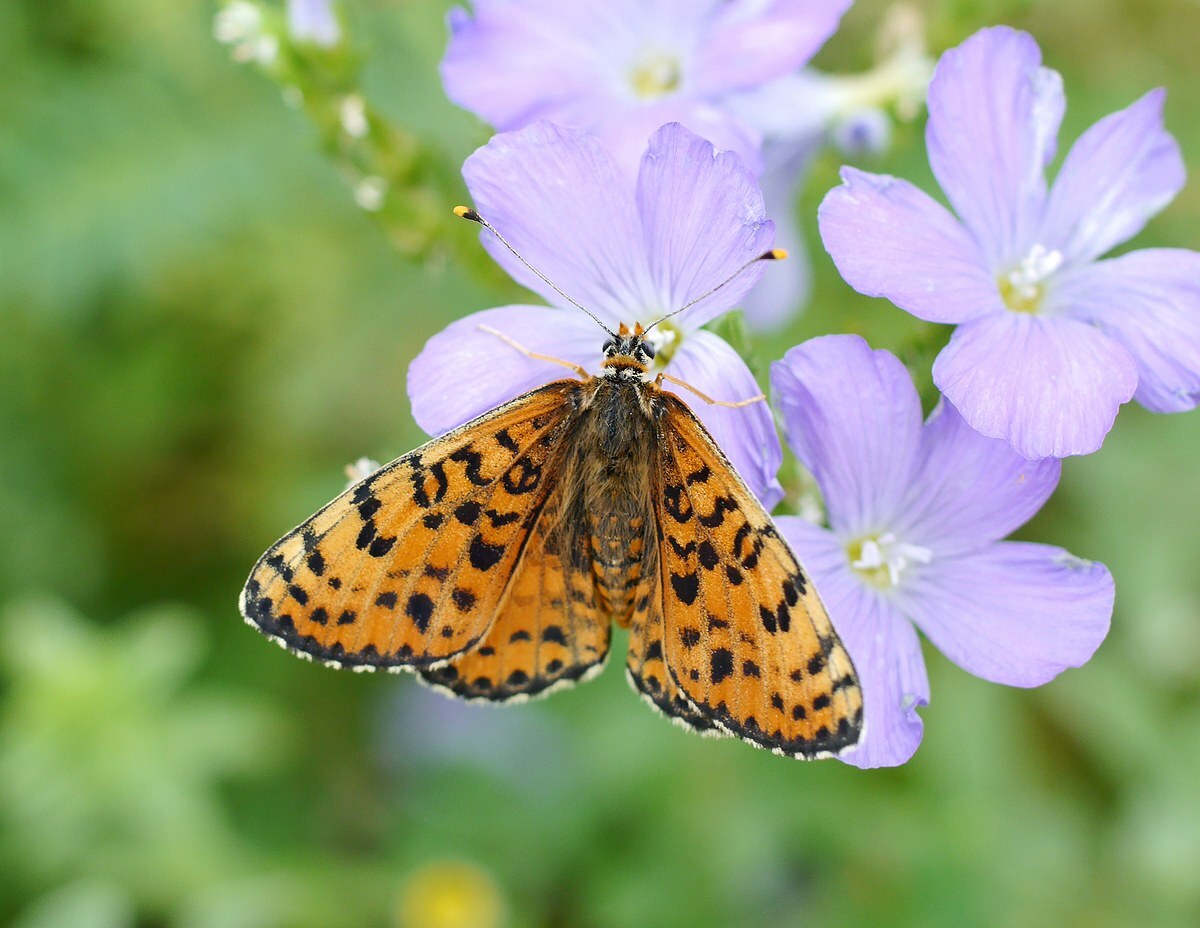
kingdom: Animalia
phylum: Arthropoda
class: Insecta
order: Lepidoptera
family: Nymphalidae
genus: Melitaea
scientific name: Melitaea didyma
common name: Spotted fritillary
